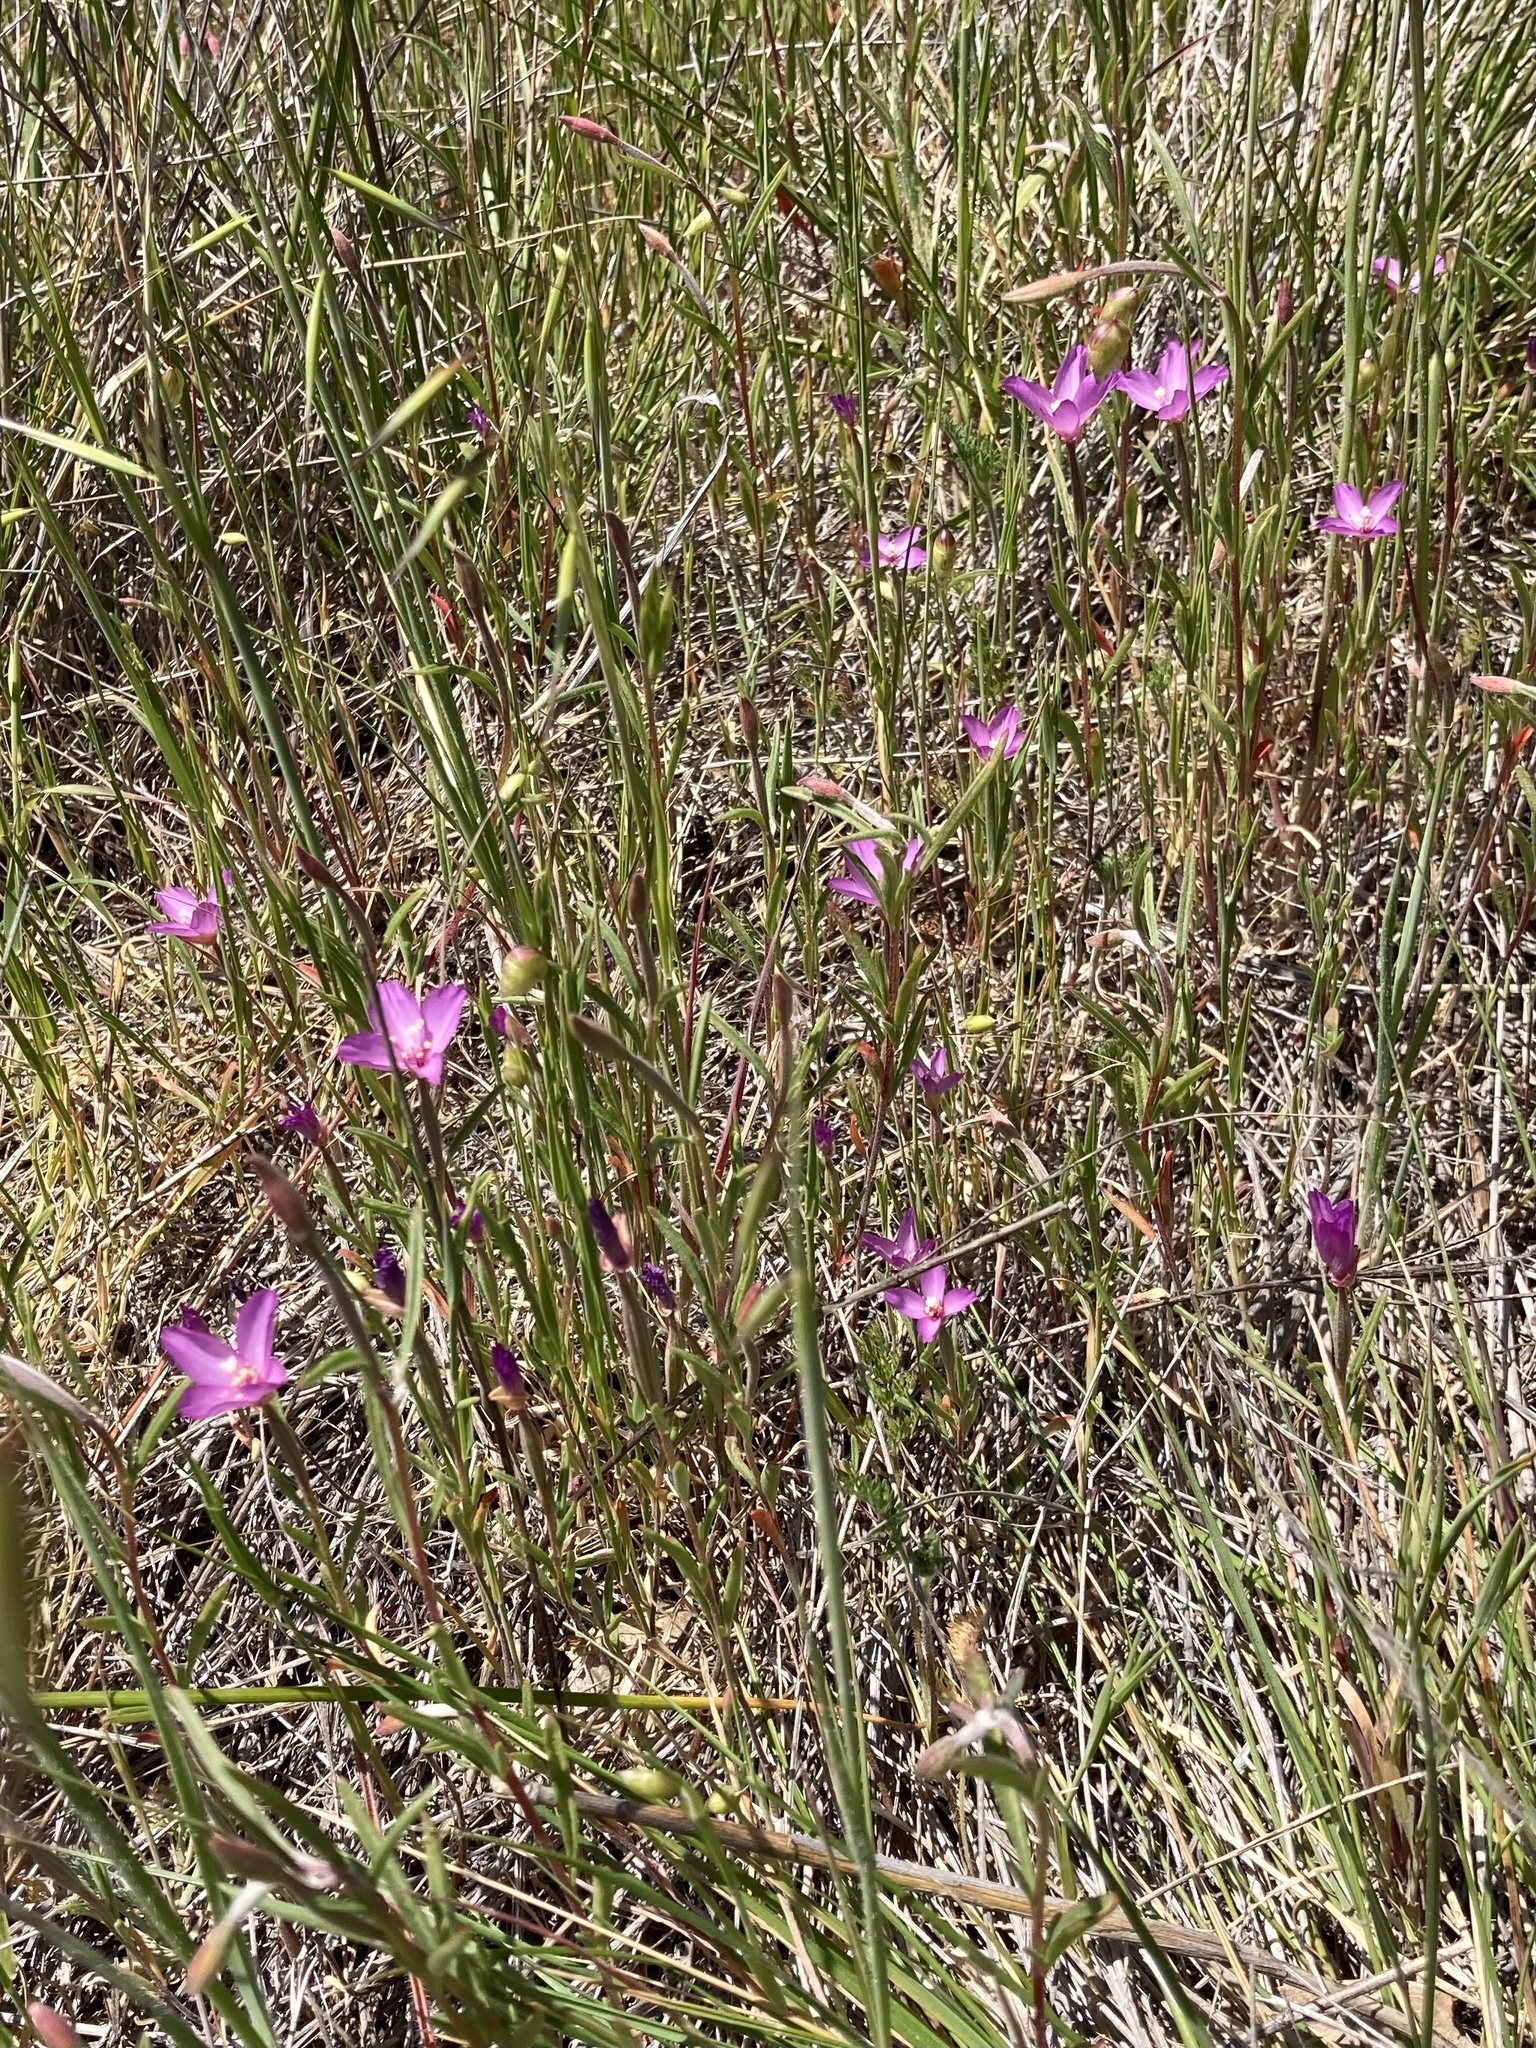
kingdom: Plantae
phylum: Tracheophyta
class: Magnoliopsida
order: Myrtales
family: Onagraceae
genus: Clarkia
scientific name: Clarkia gracilis
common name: Graceful clarkia
